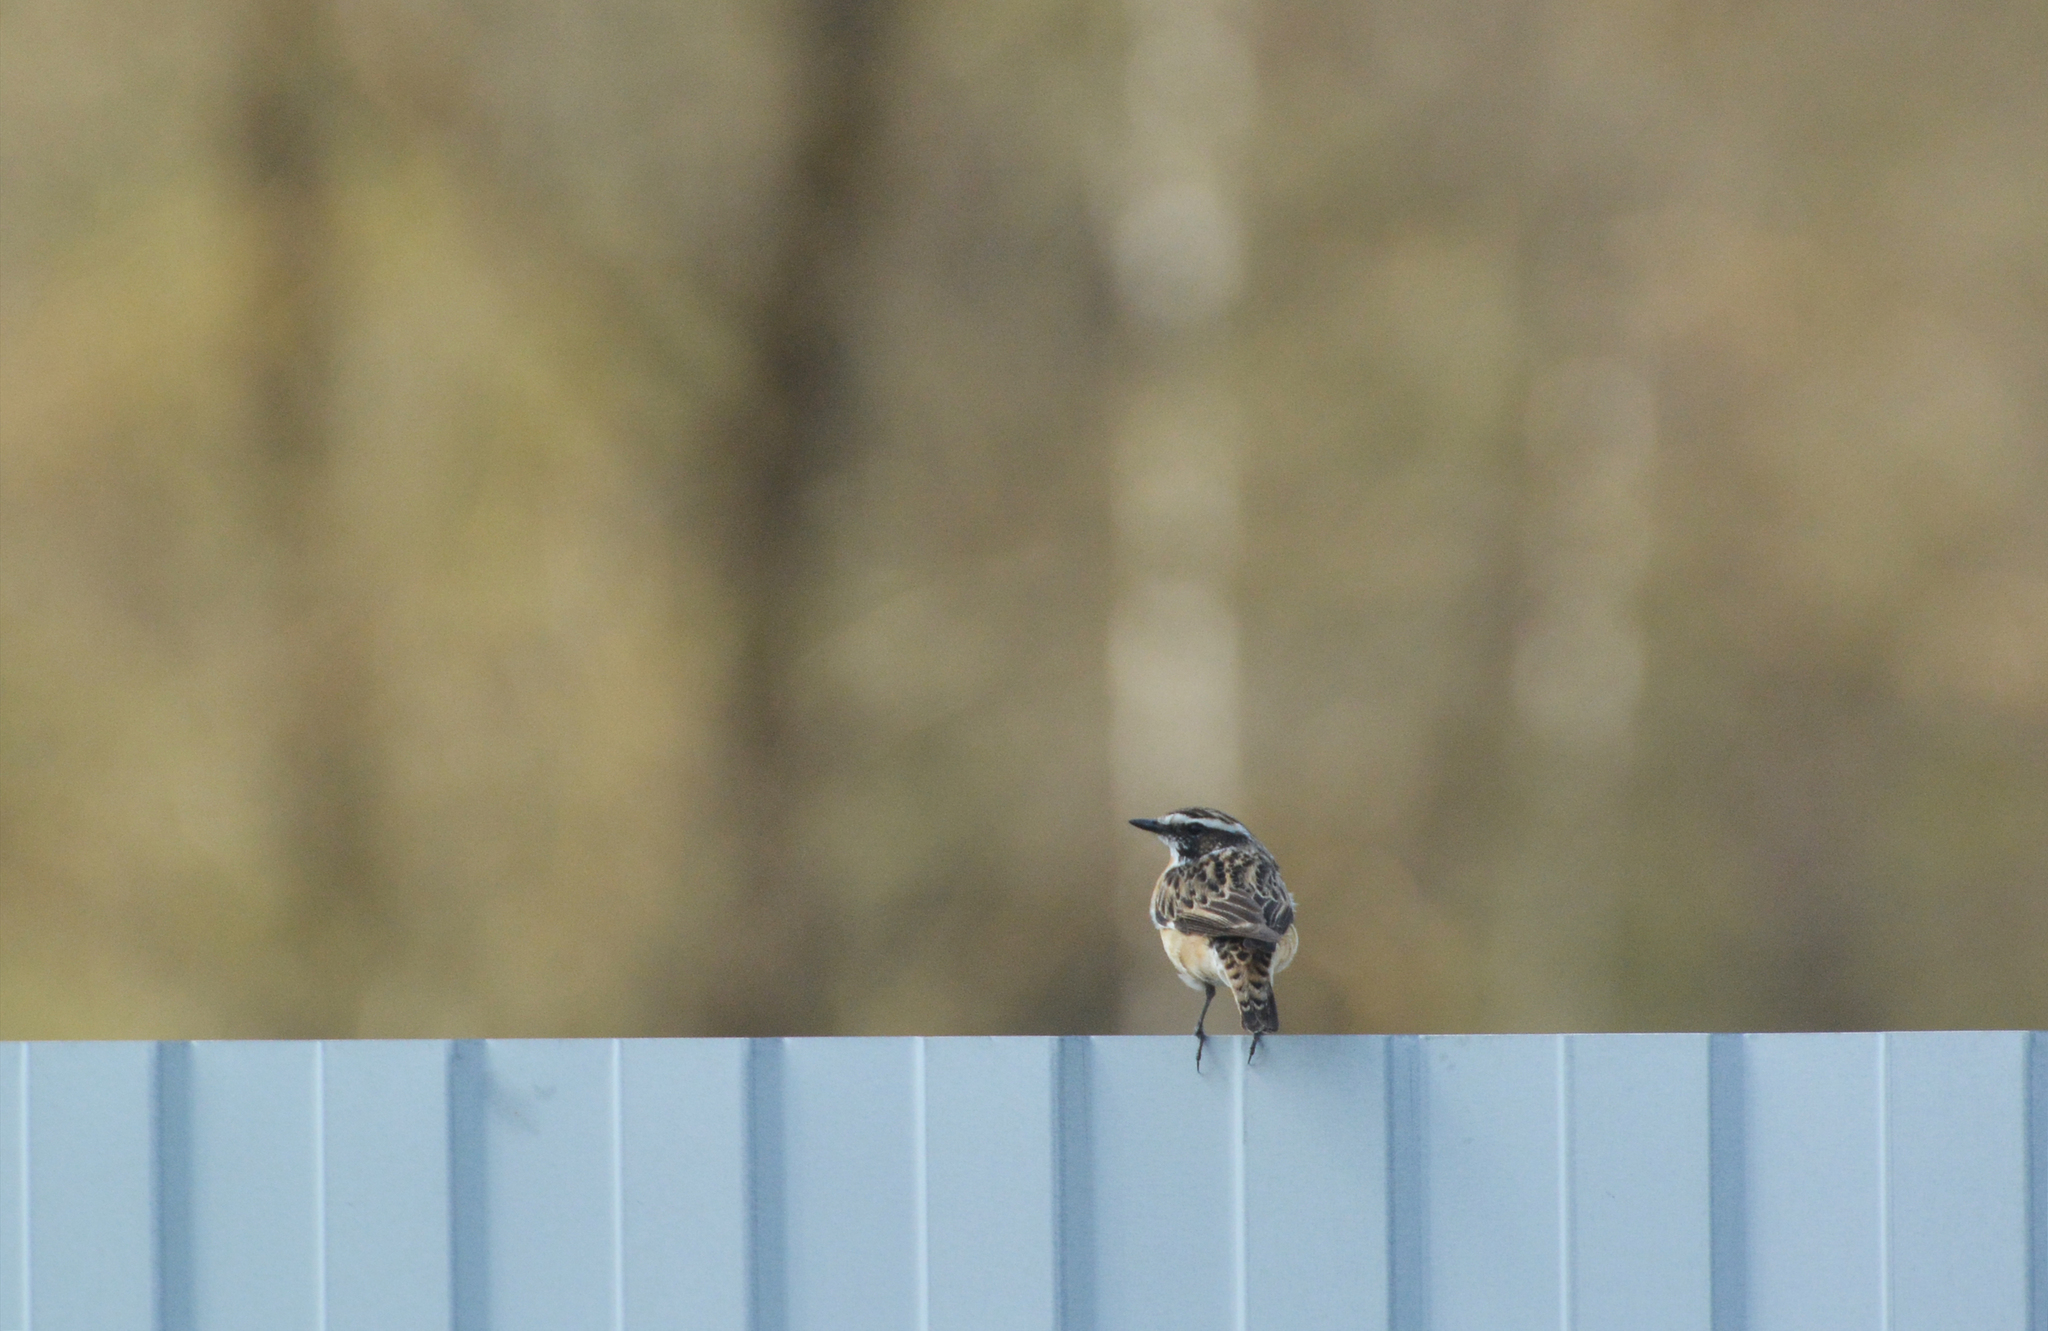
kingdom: Animalia
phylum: Chordata
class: Aves
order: Passeriformes
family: Muscicapidae
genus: Saxicola
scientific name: Saxicola rubetra
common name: Whinchat
